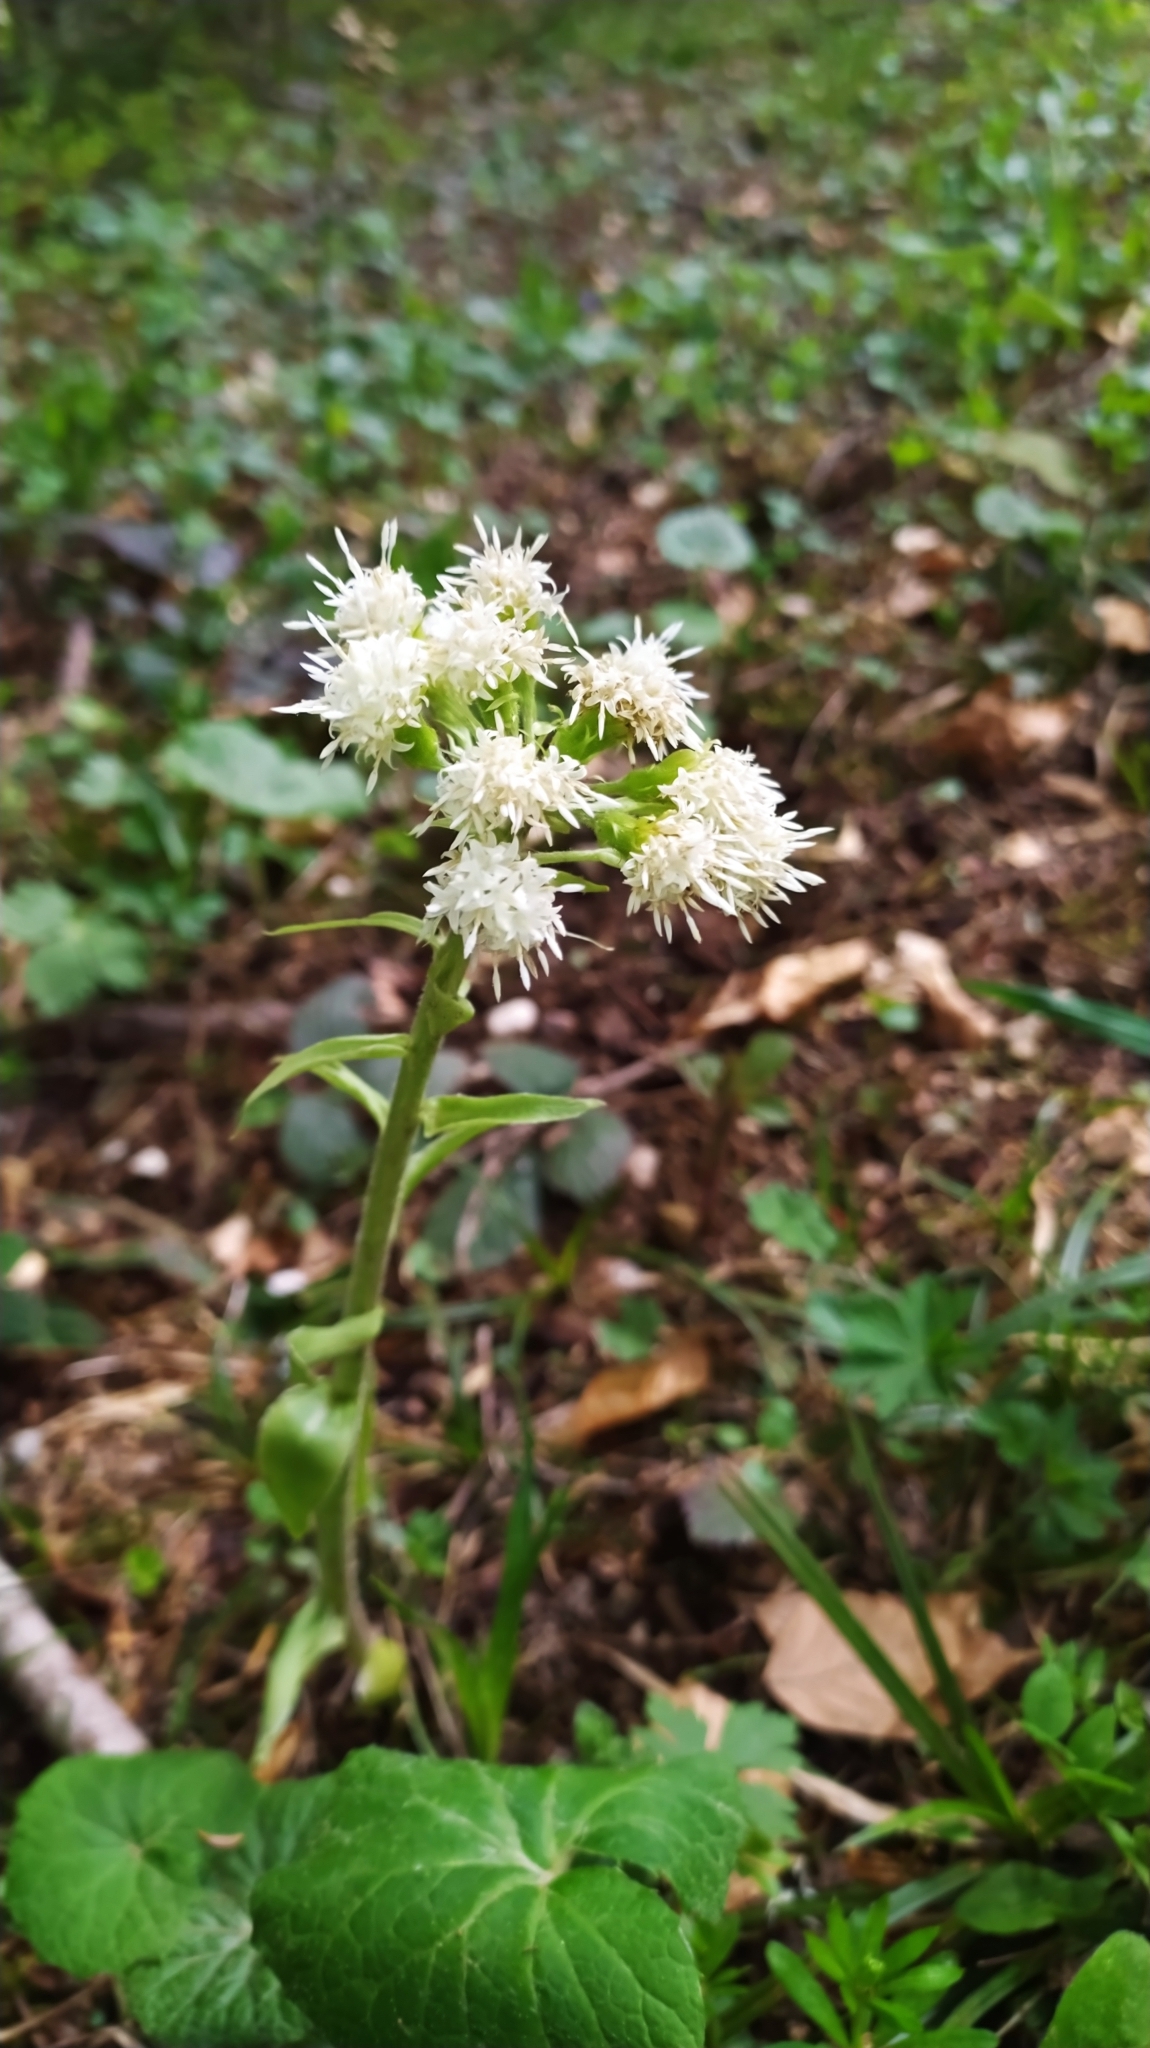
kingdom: Plantae
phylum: Tracheophyta
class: Magnoliopsida
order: Asterales
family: Asteraceae
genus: Petasites
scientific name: Petasites albus
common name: White butterbur
